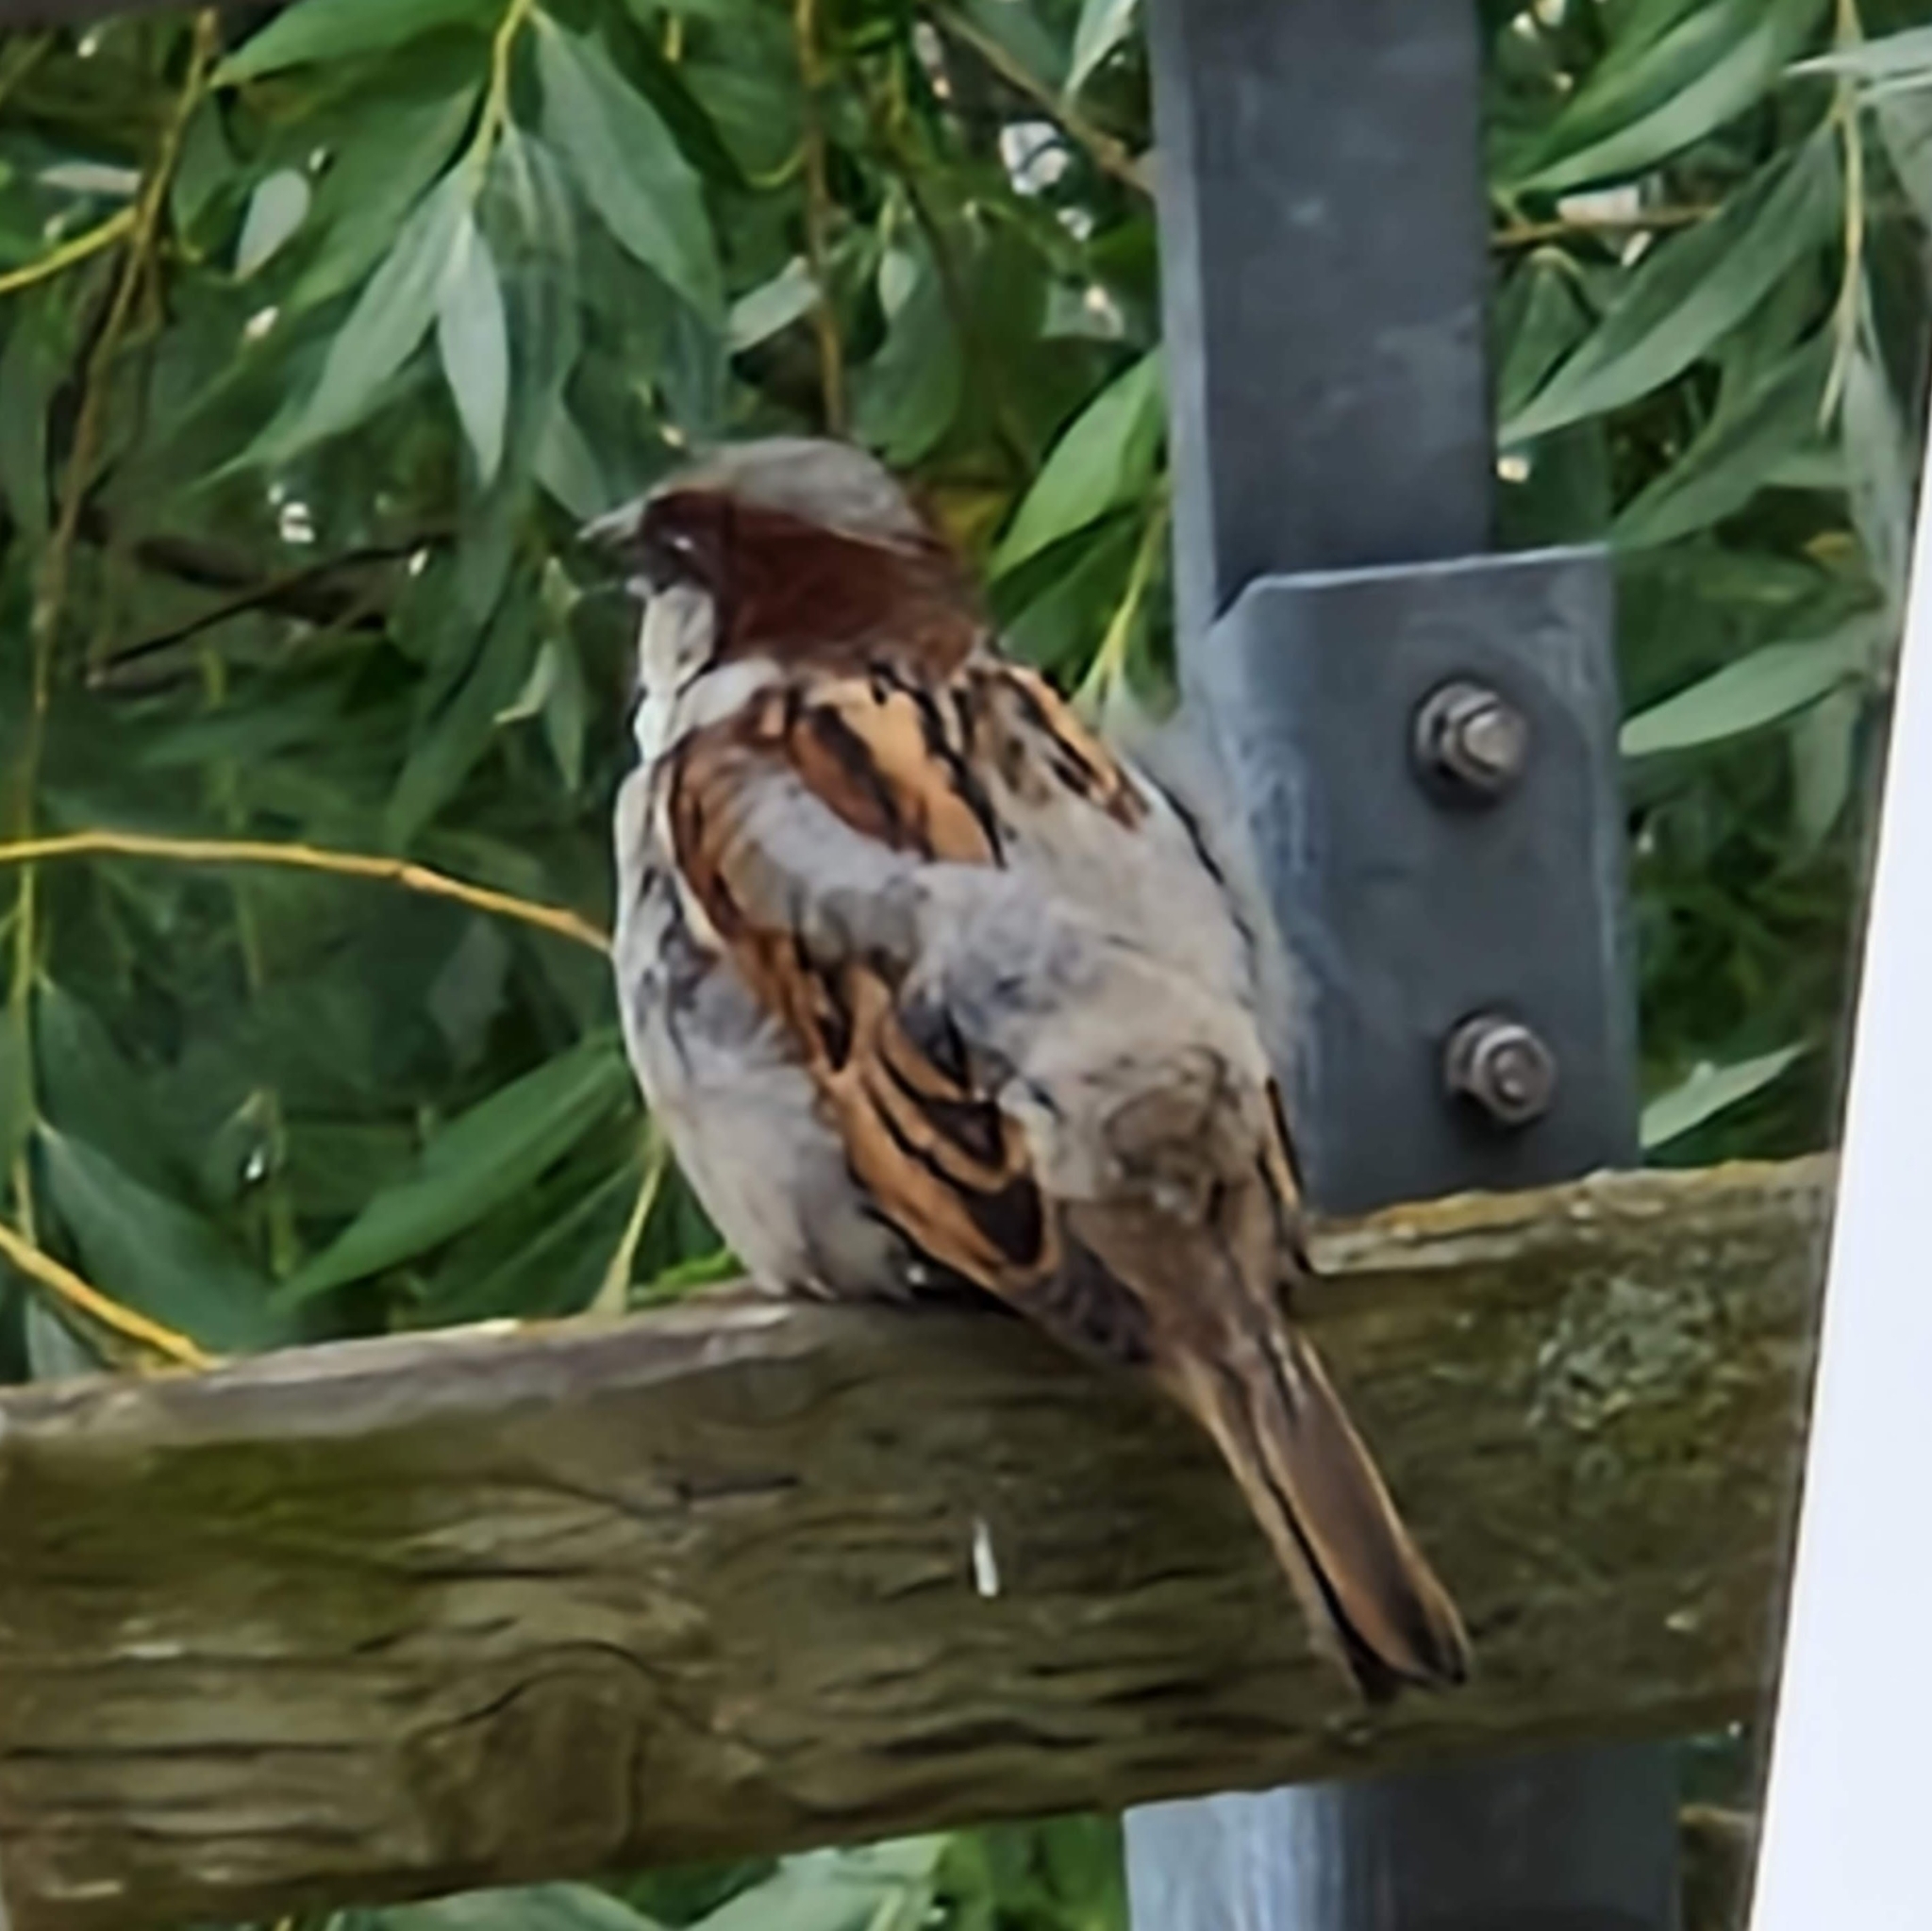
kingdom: Animalia
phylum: Chordata
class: Aves
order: Passeriformes
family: Passeridae
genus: Passer
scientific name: Passer domesticus
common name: House sparrow
